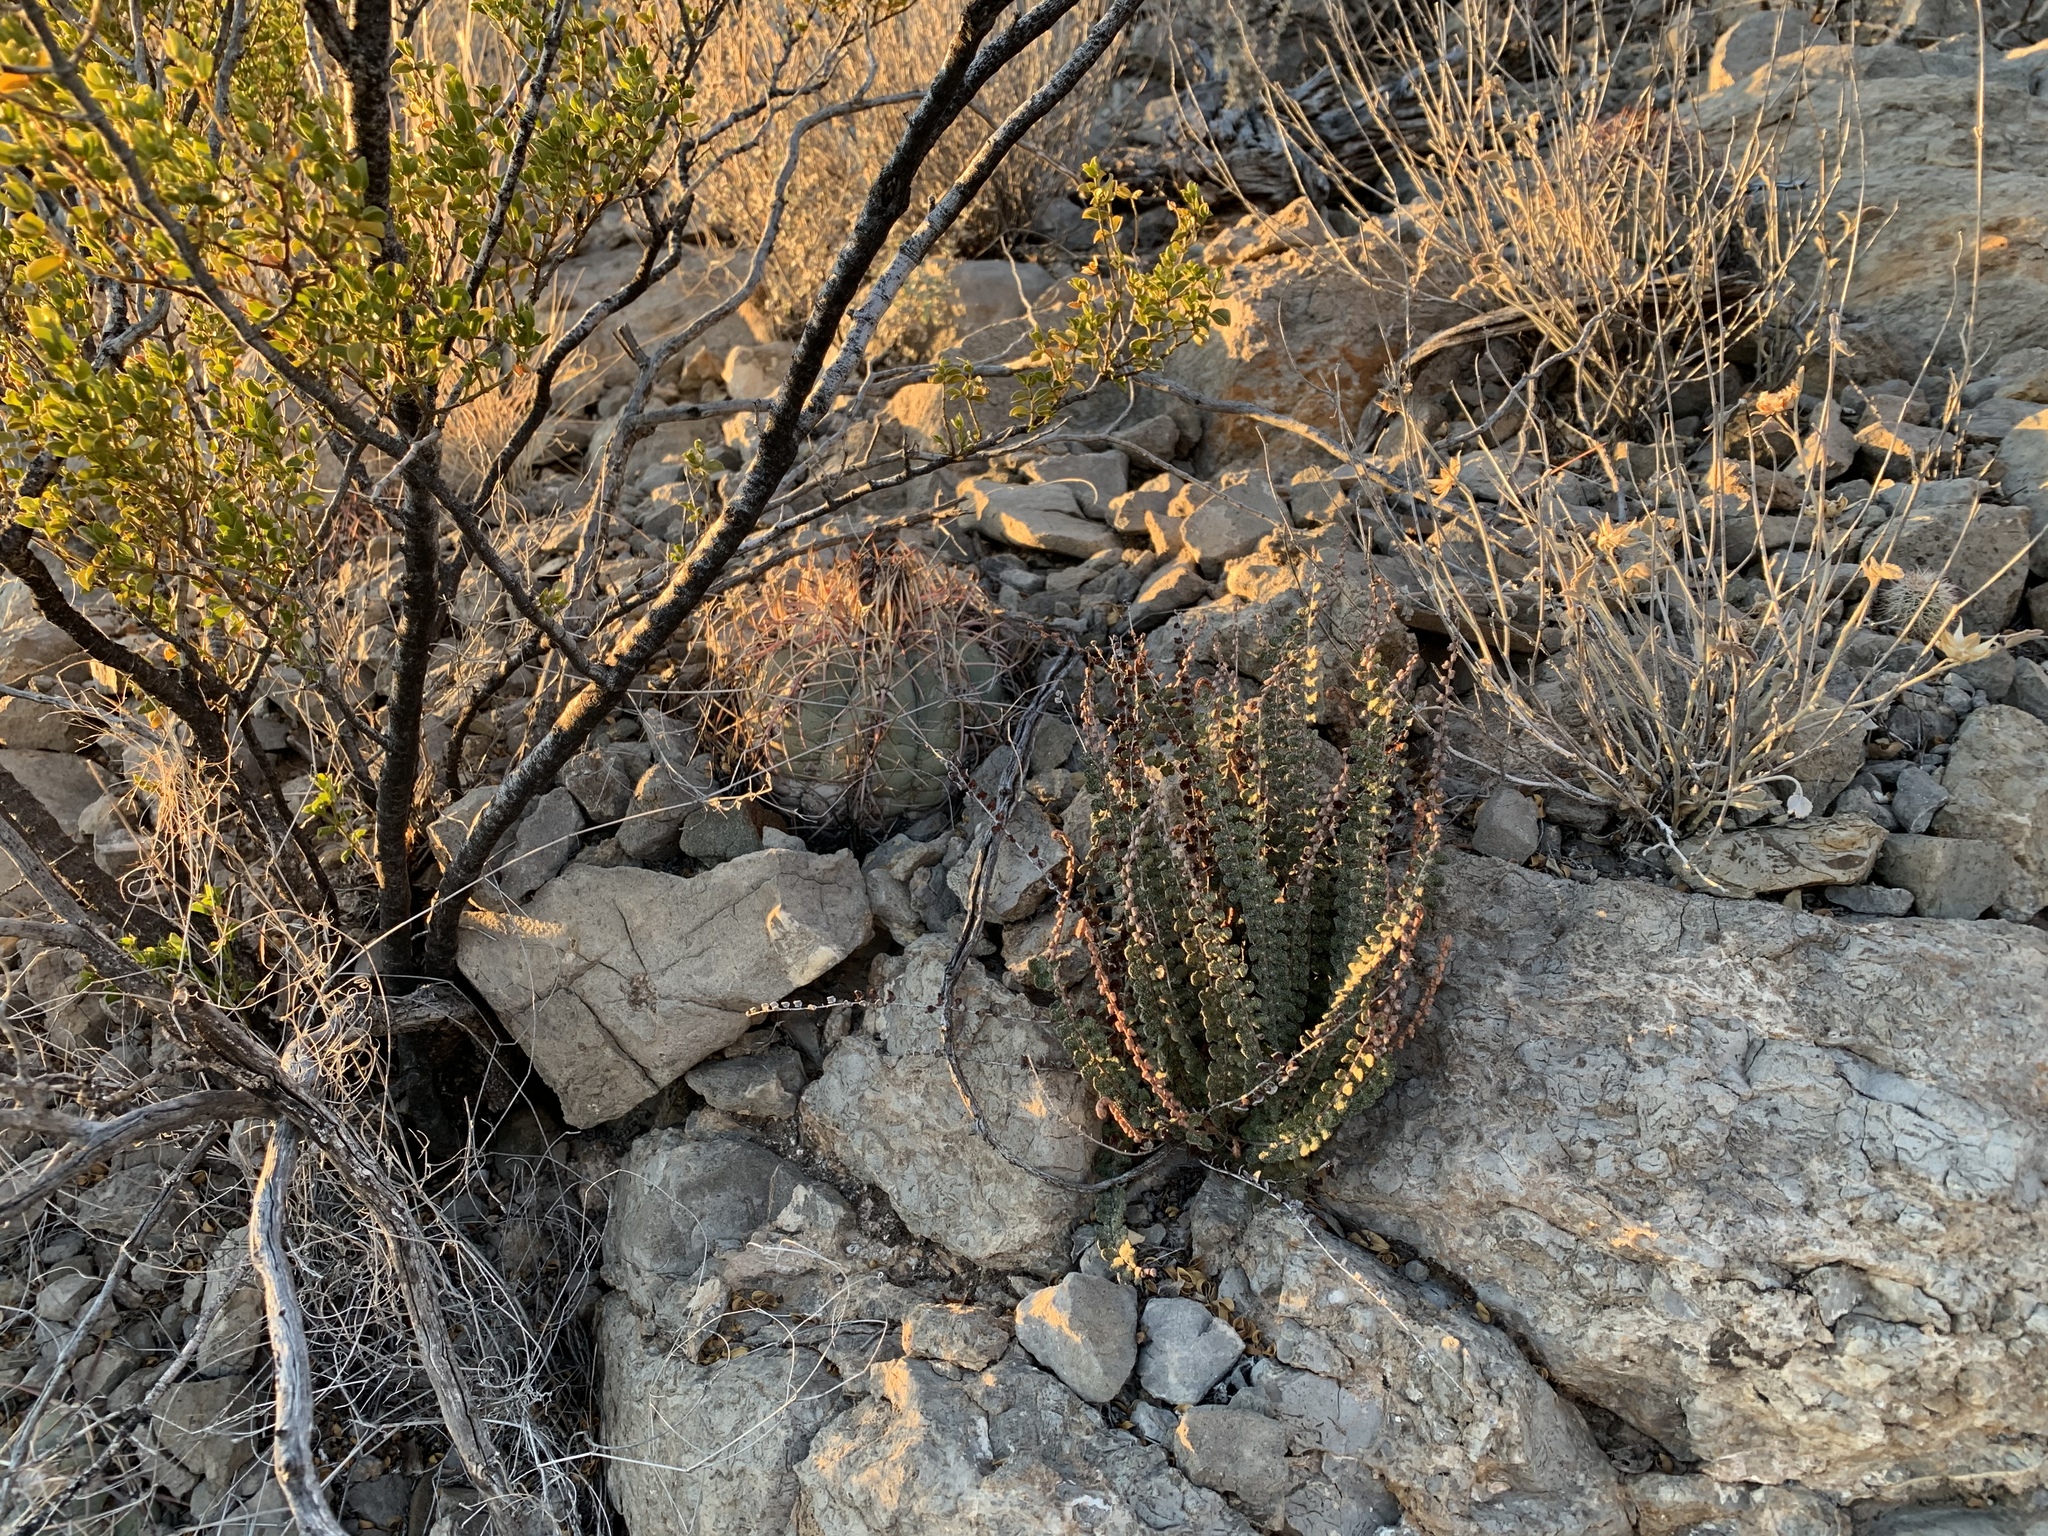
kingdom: Plantae
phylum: Tracheophyta
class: Polypodiopsida
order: Polypodiales
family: Pteridaceae
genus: Astrolepis
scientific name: Astrolepis cochisensis
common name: Scaly cloak fern
